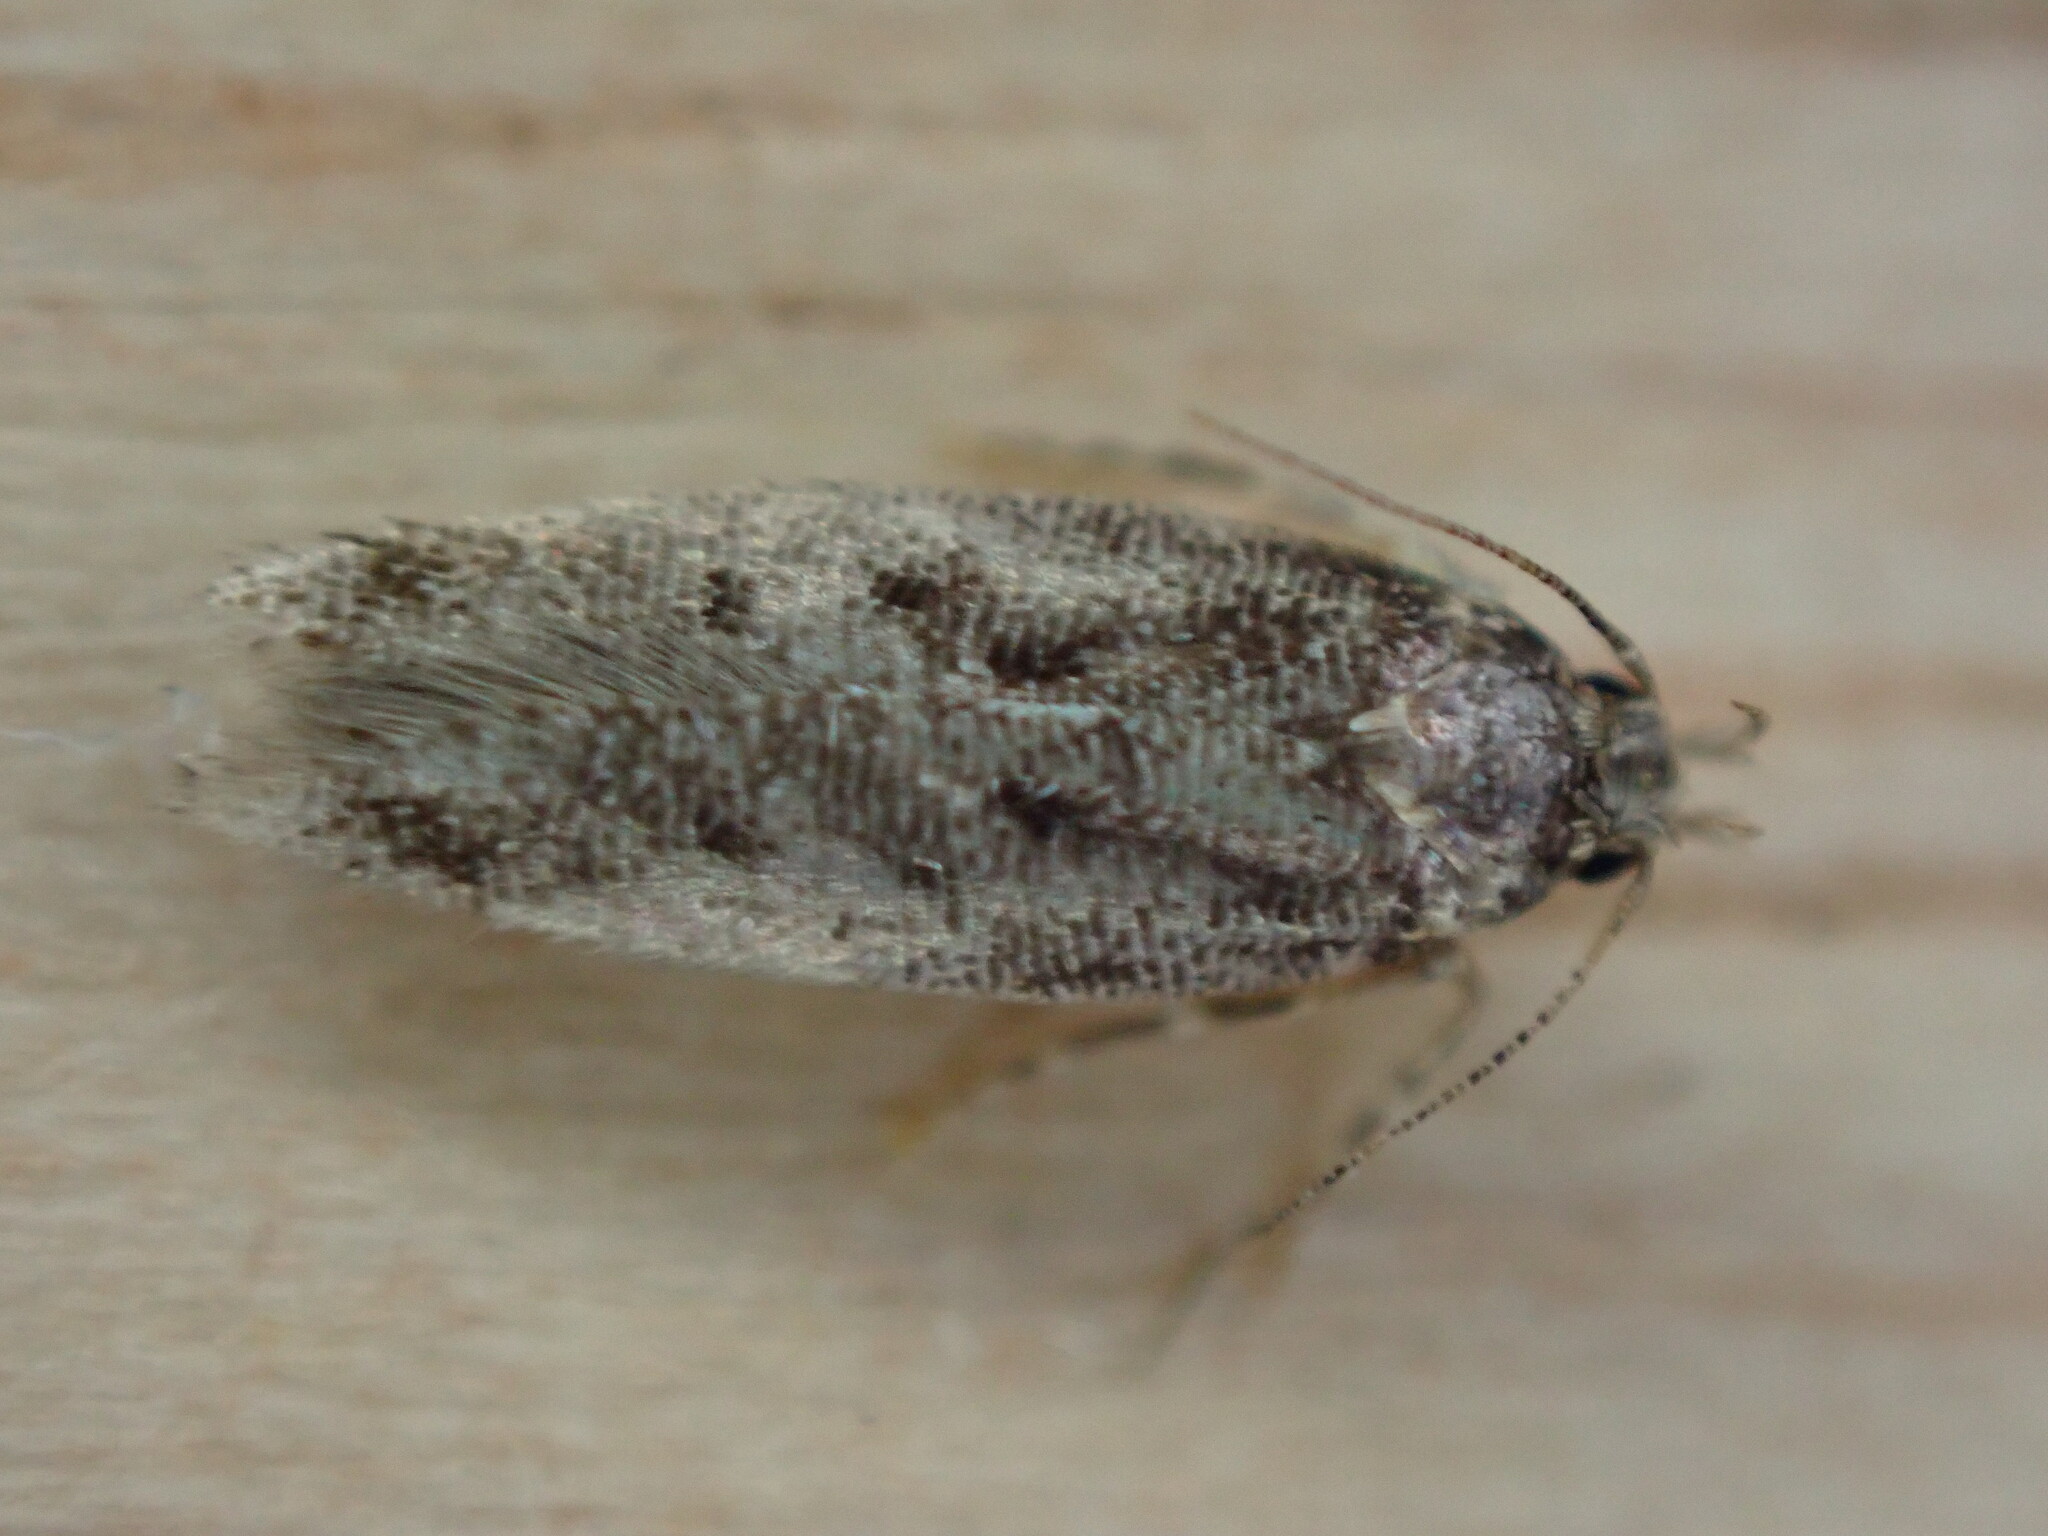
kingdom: Animalia
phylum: Arthropoda
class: Insecta
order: Lepidoptera
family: Oecophoridae
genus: Hofmannophila
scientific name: Hofmannophila pseudospretella
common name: Brown house moth
